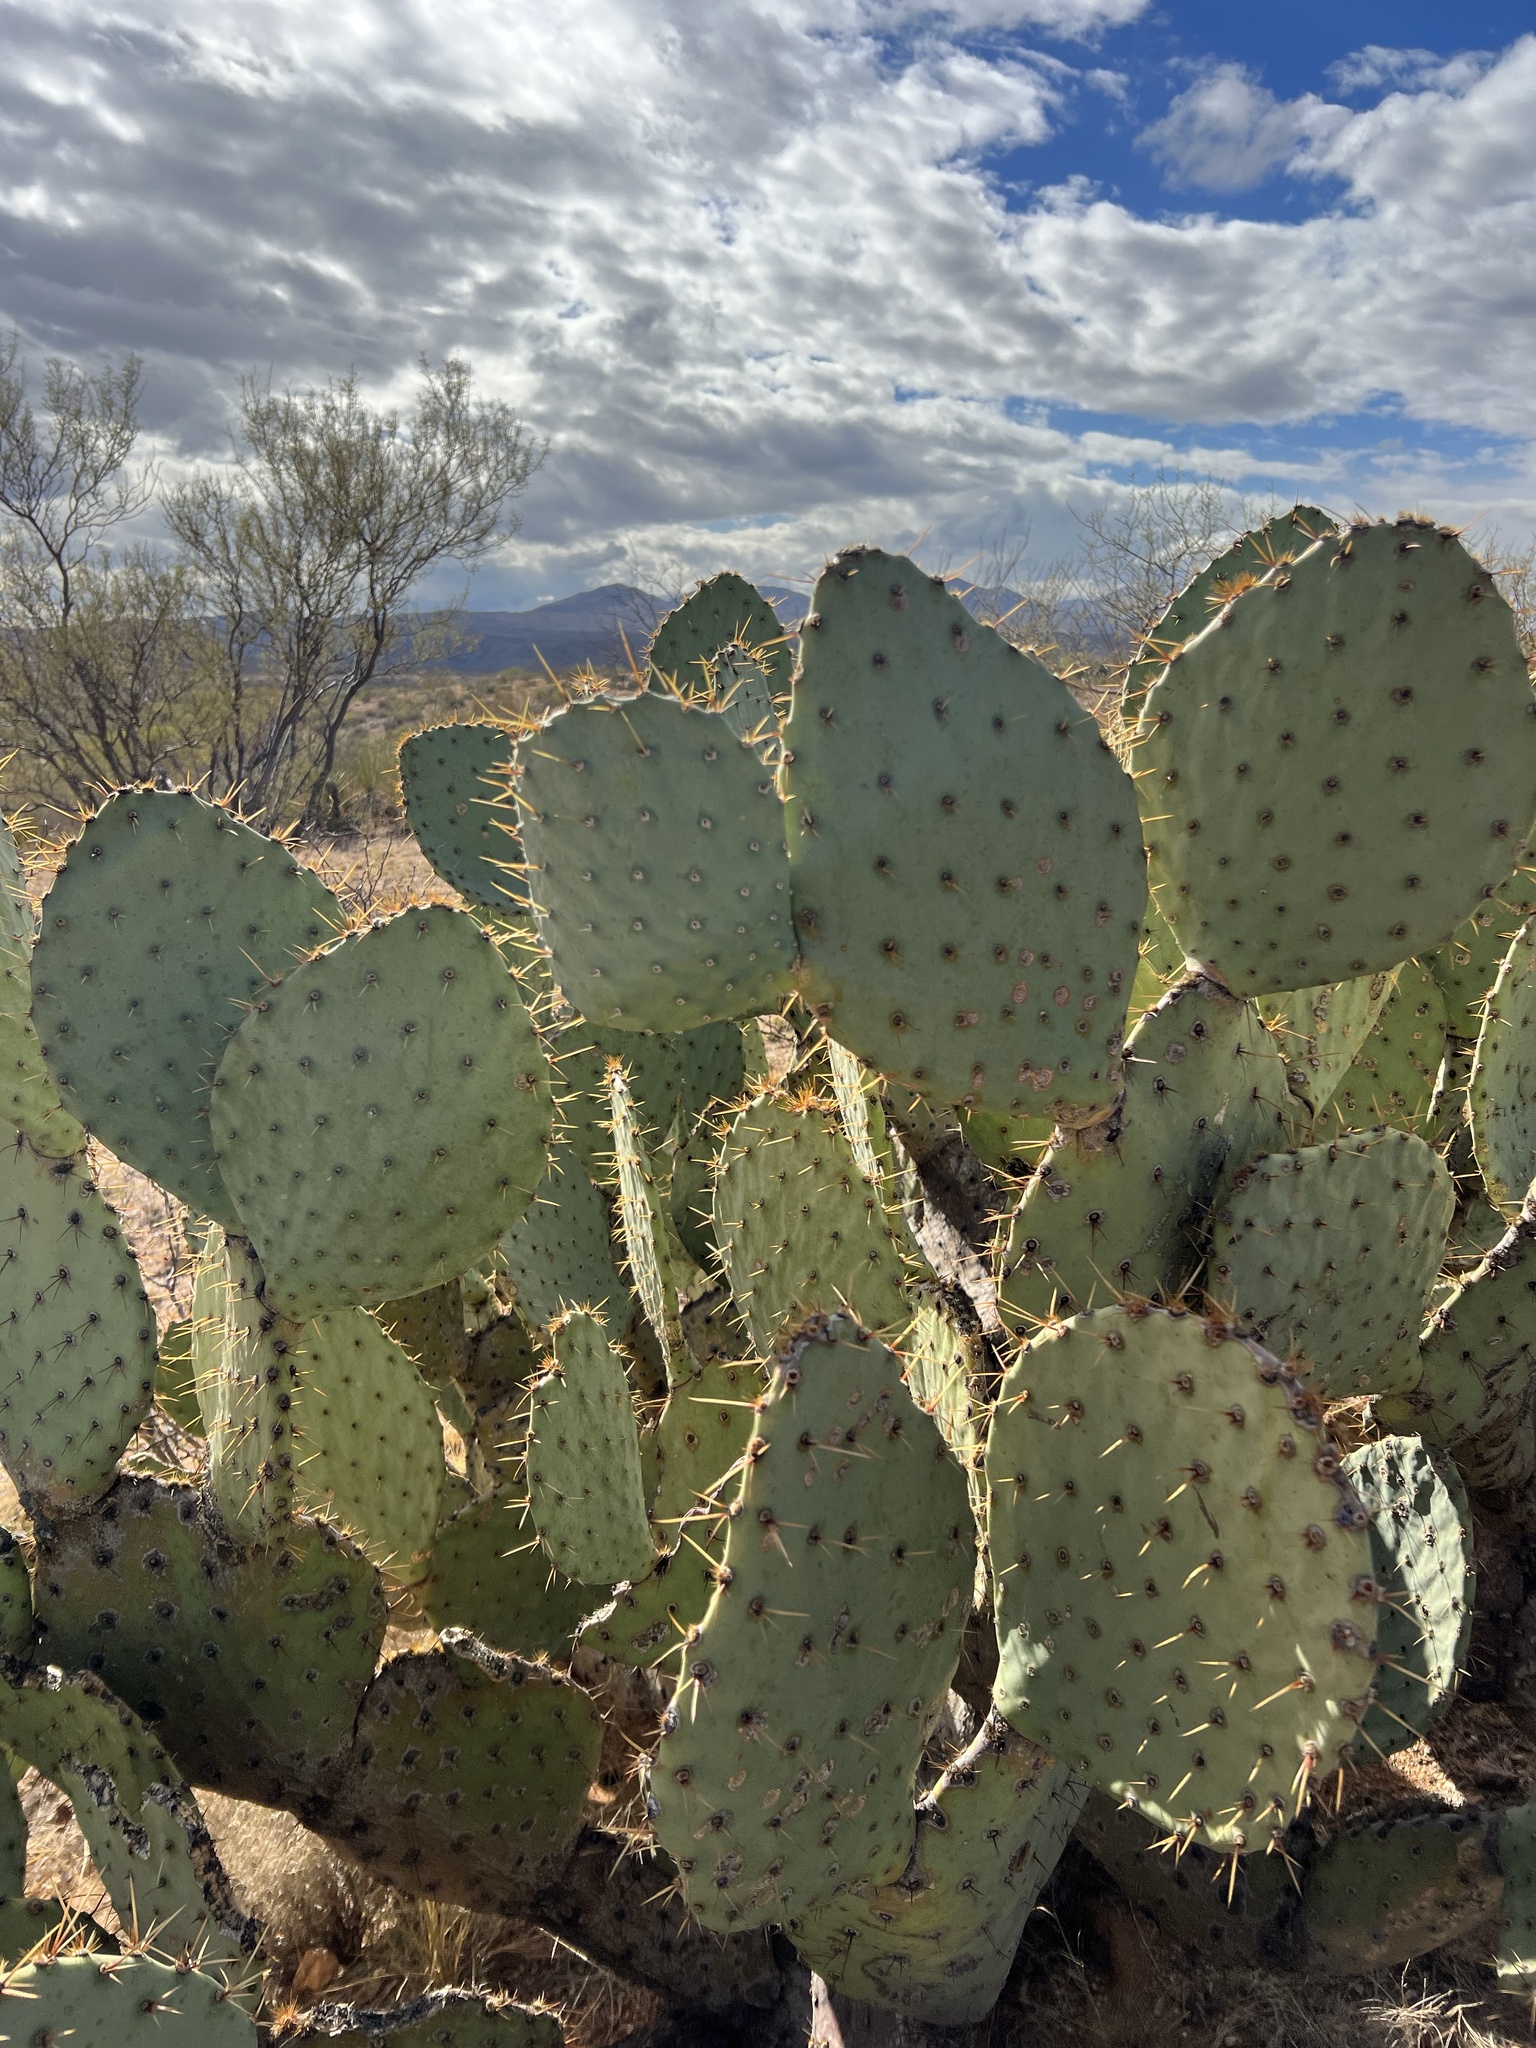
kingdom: Plantae
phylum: Tracheophyta
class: Magnoliopsida
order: Caryophyllales
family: Cactaceae
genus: Opuntia
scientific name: Opuntia engelmannii
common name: Cactus-apple
